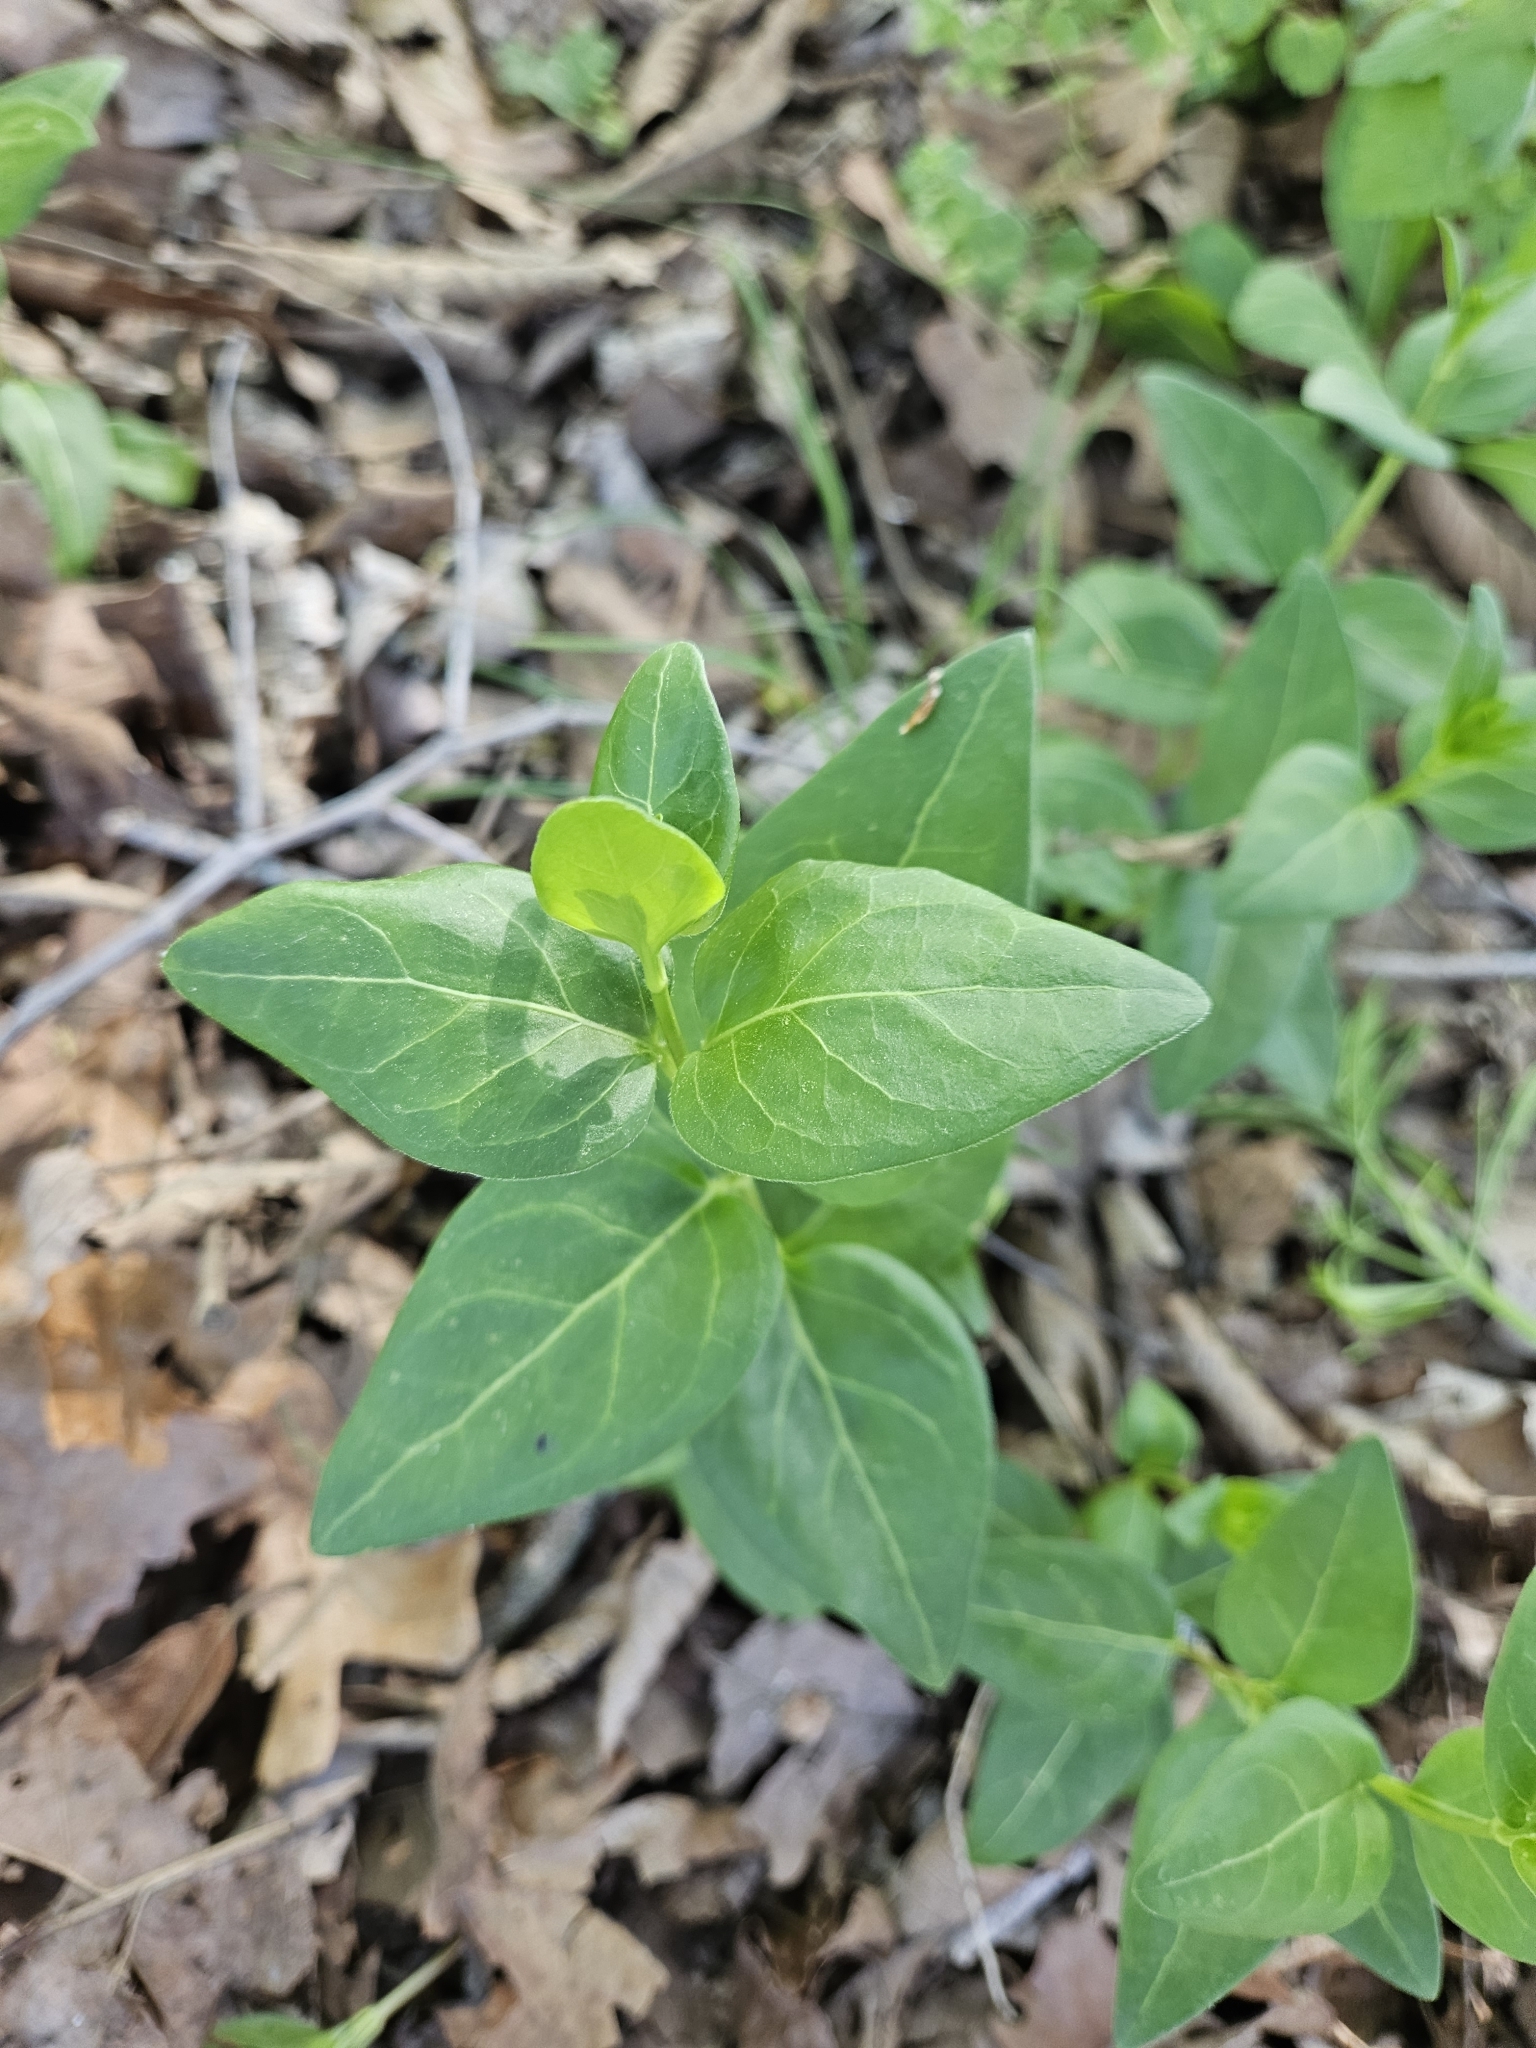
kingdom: Plantae
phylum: Tracheophyta
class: Magnoliopsida
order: Gentianales
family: Apocynaceae
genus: Vinca
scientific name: Vinca major
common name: Greater periwinkle
